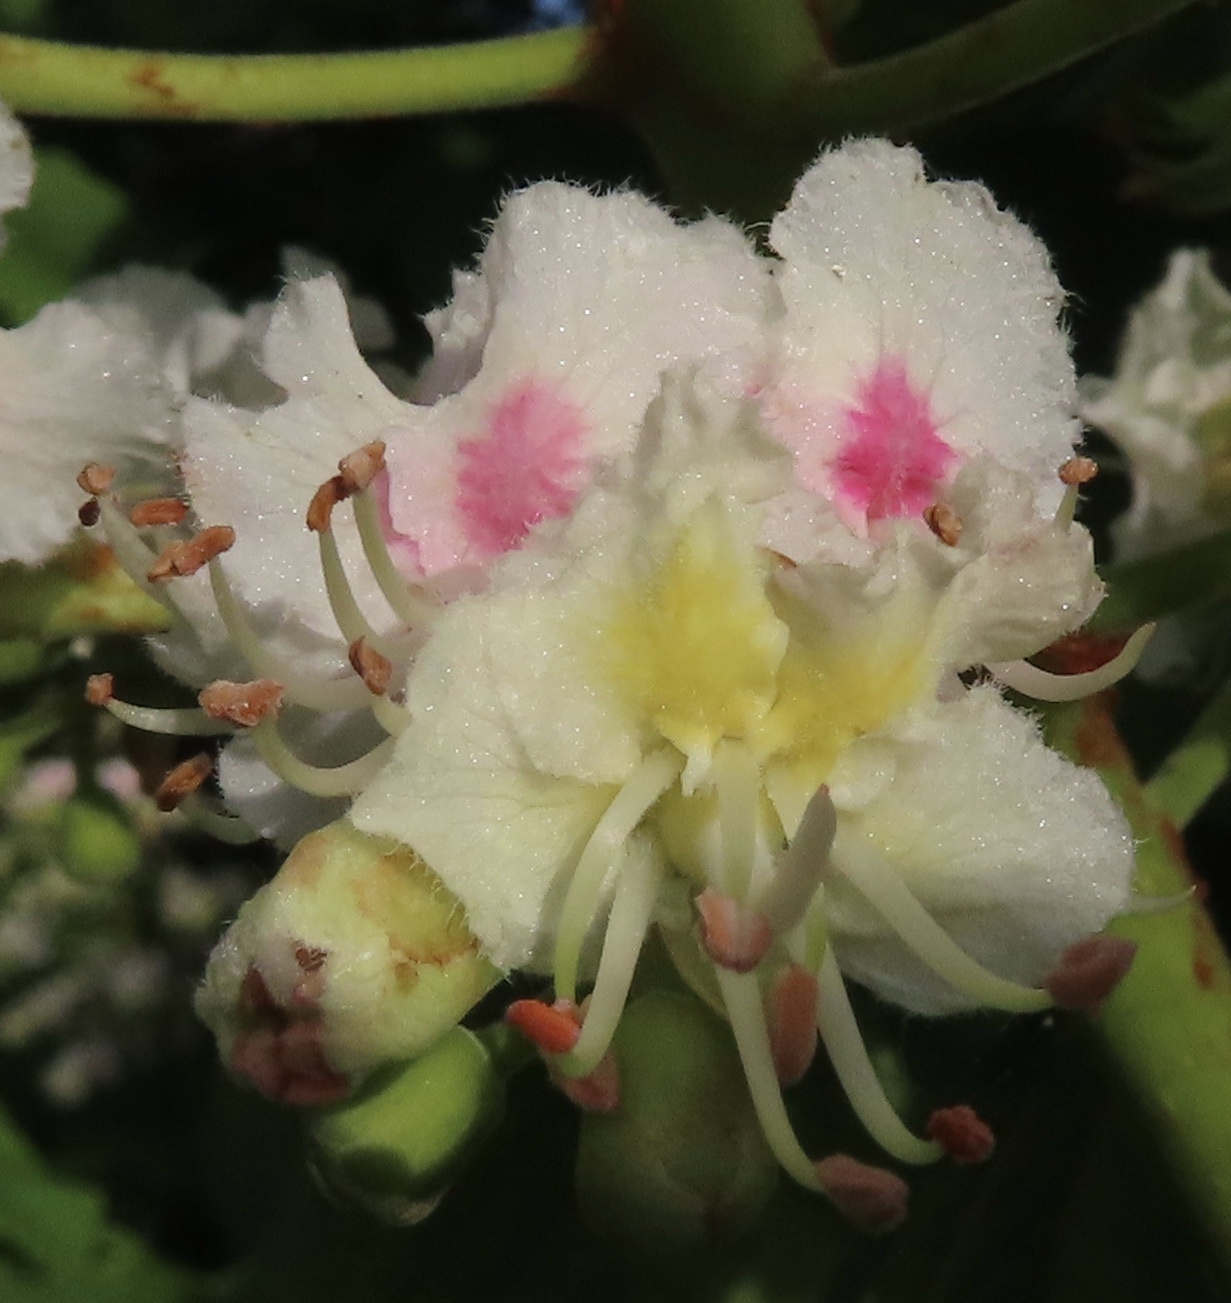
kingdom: Plantae
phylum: Tracheophyta
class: Magnoliopsida
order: Sapindales
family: Sapindaceae
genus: Aesculus
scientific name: Aesculus hippocastanum
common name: Horse-chestnut
